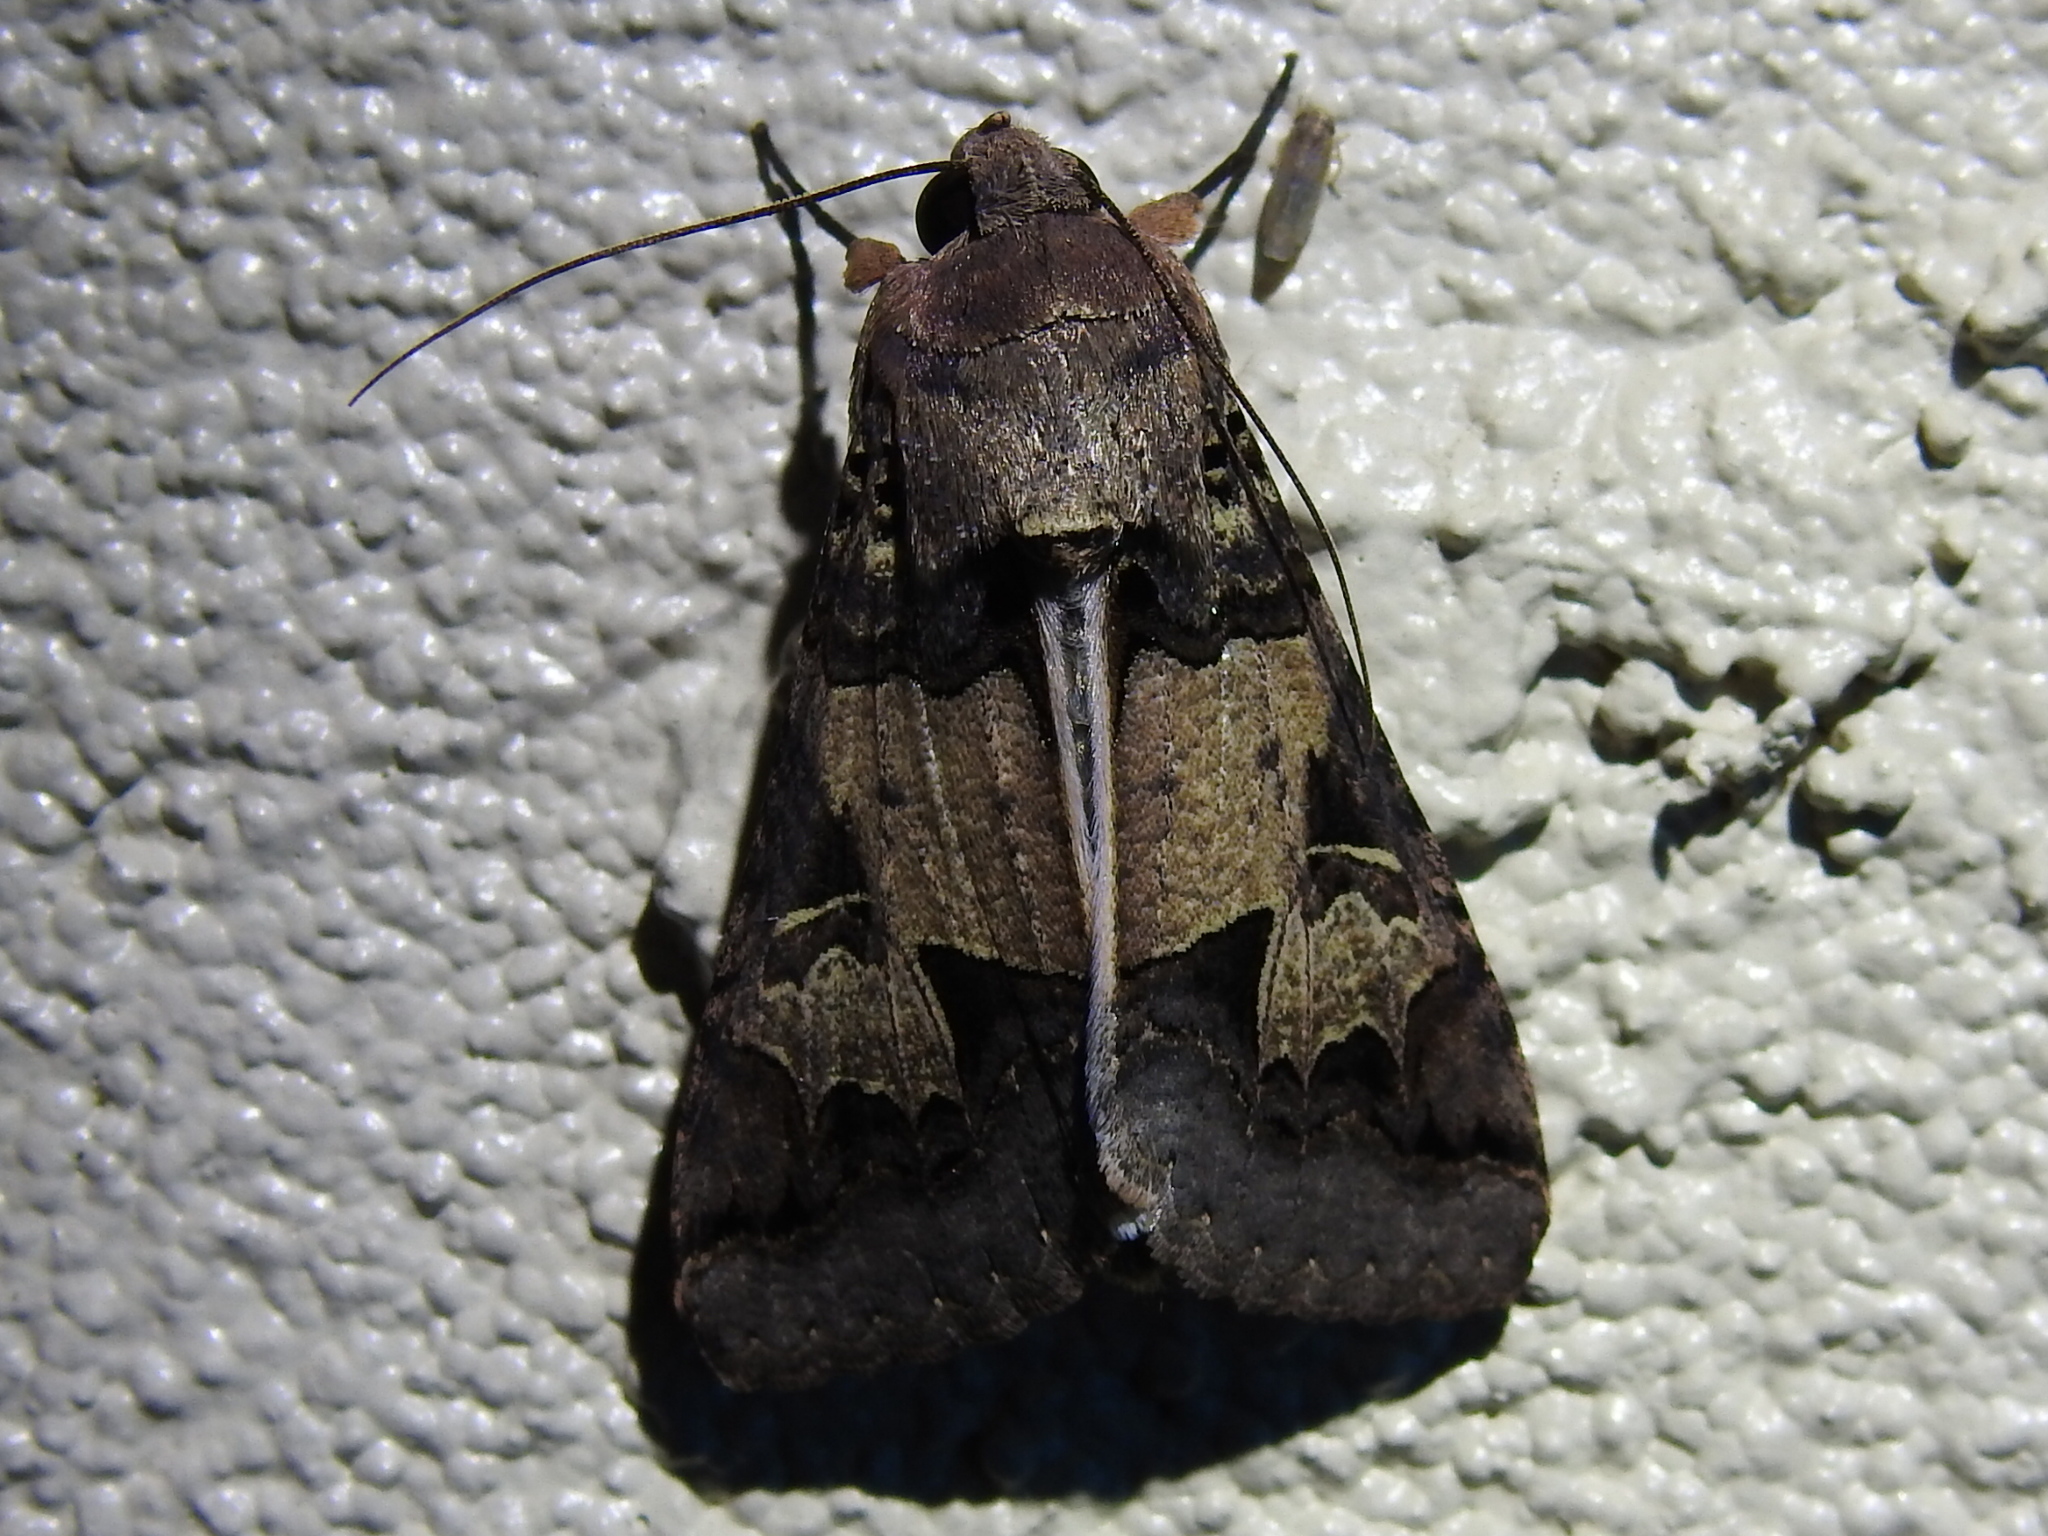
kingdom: Animalia
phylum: Arthropoda
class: Insecta
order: Lepidoptera
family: Erebidae
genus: Melipotis
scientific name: Melipotis agrotoides
